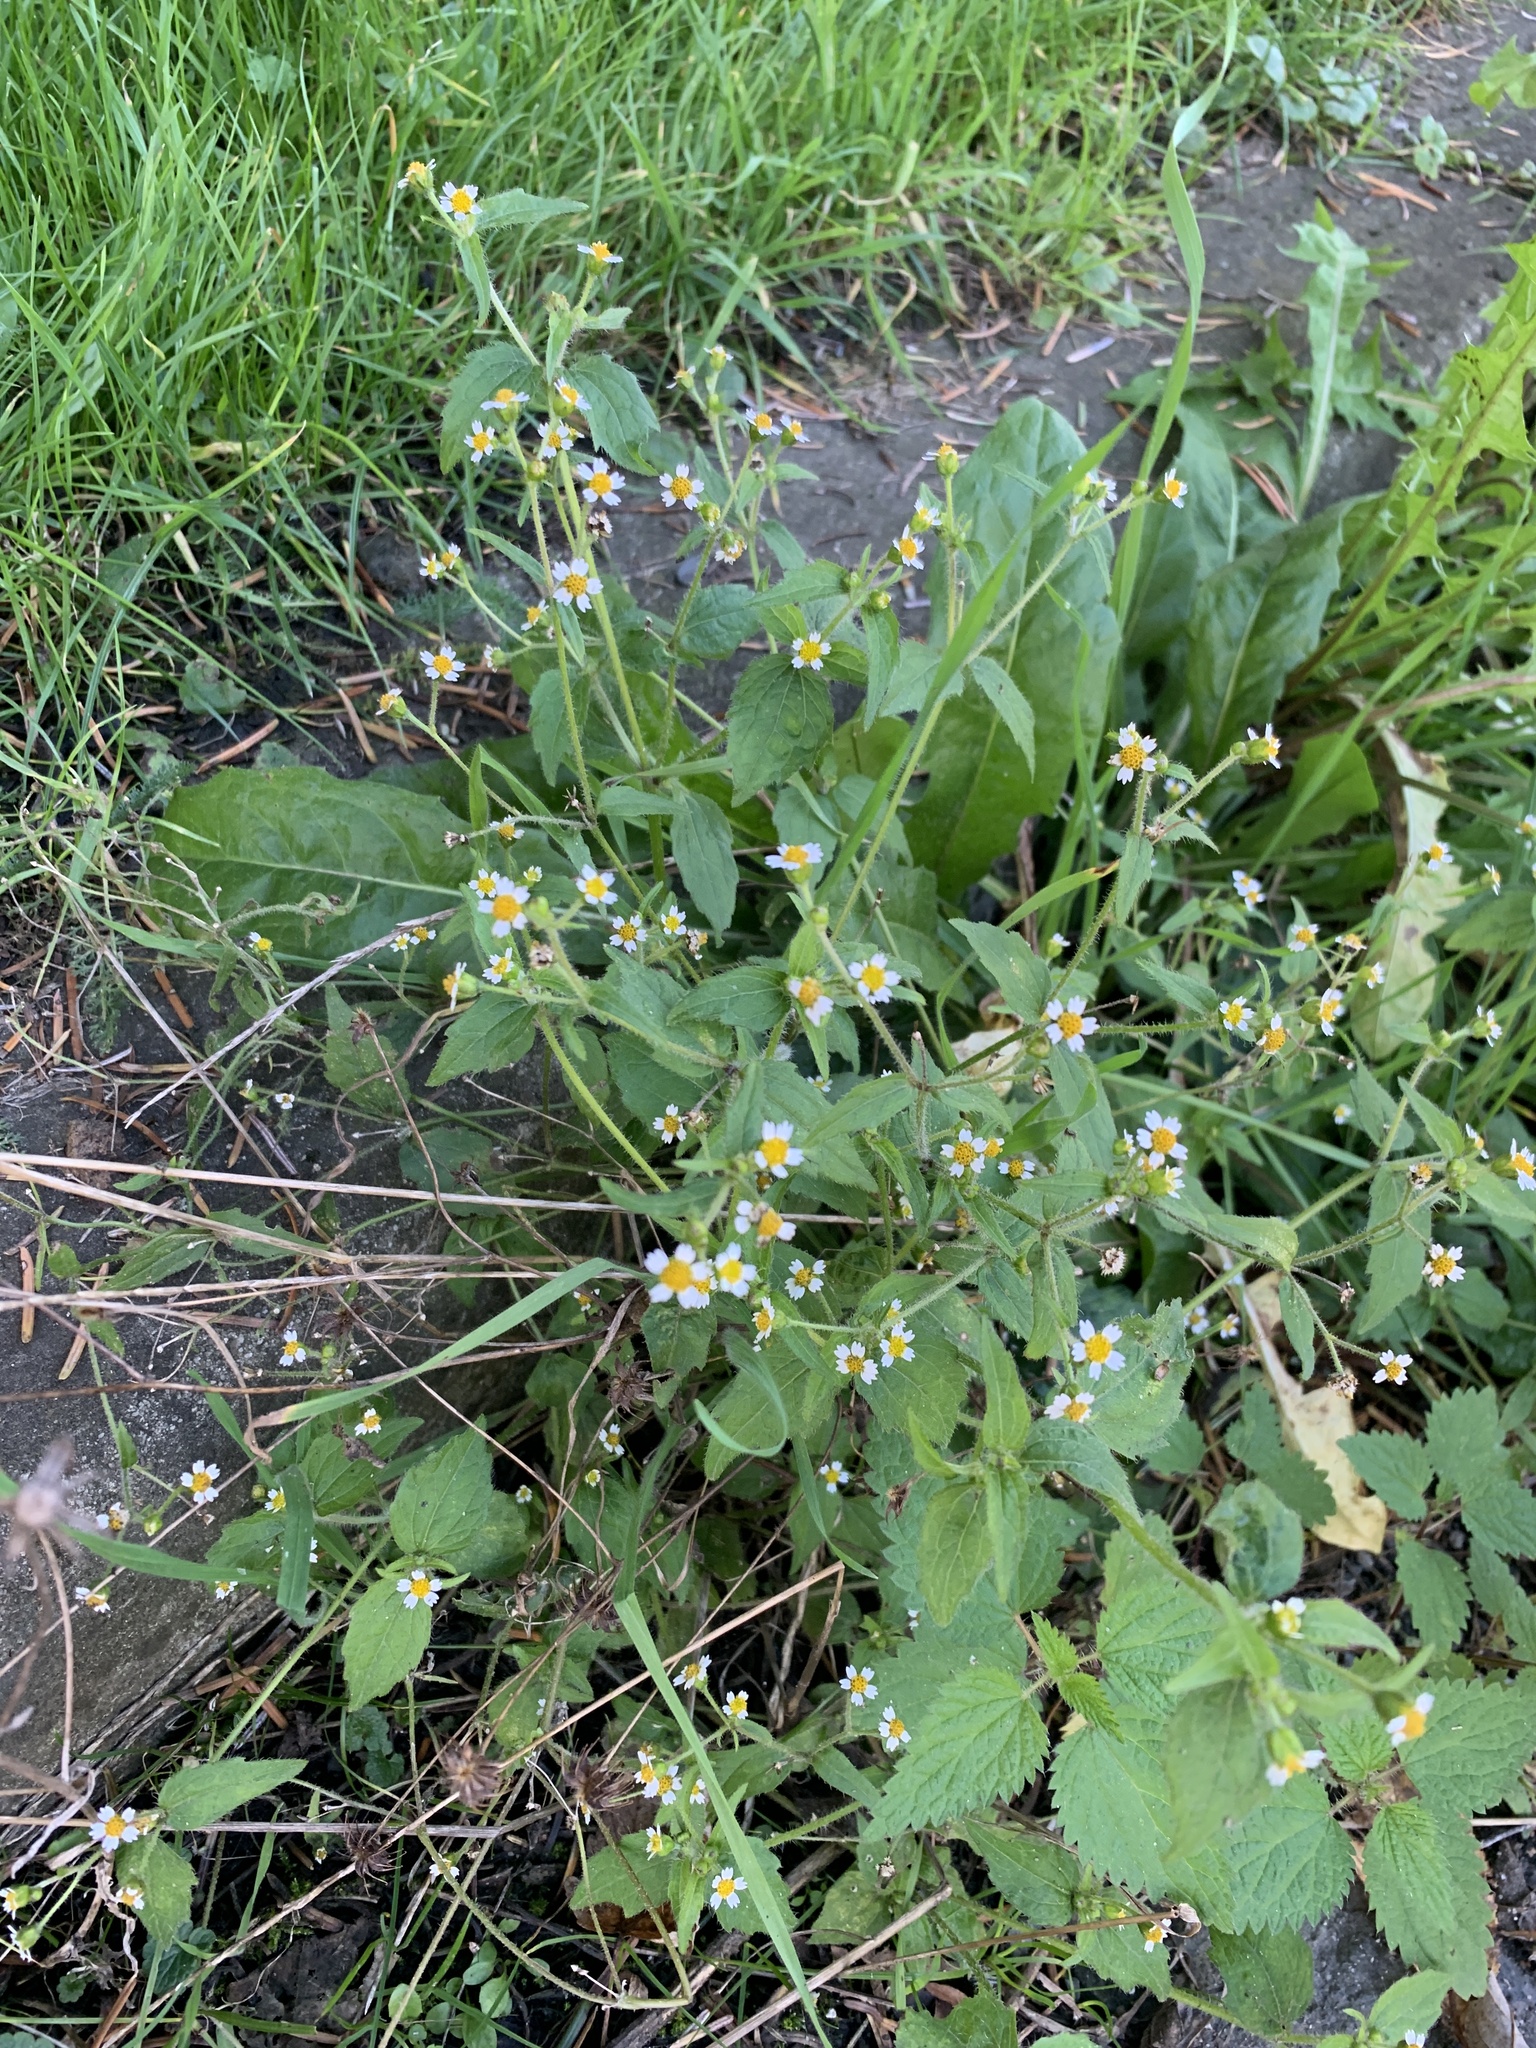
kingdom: Plantae
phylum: Tracheophyta
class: Magnoliopsida
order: Asterales
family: Asteraceae
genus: Galinsoga
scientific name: Galinsoga quadriradiata
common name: Shaggy soldier
